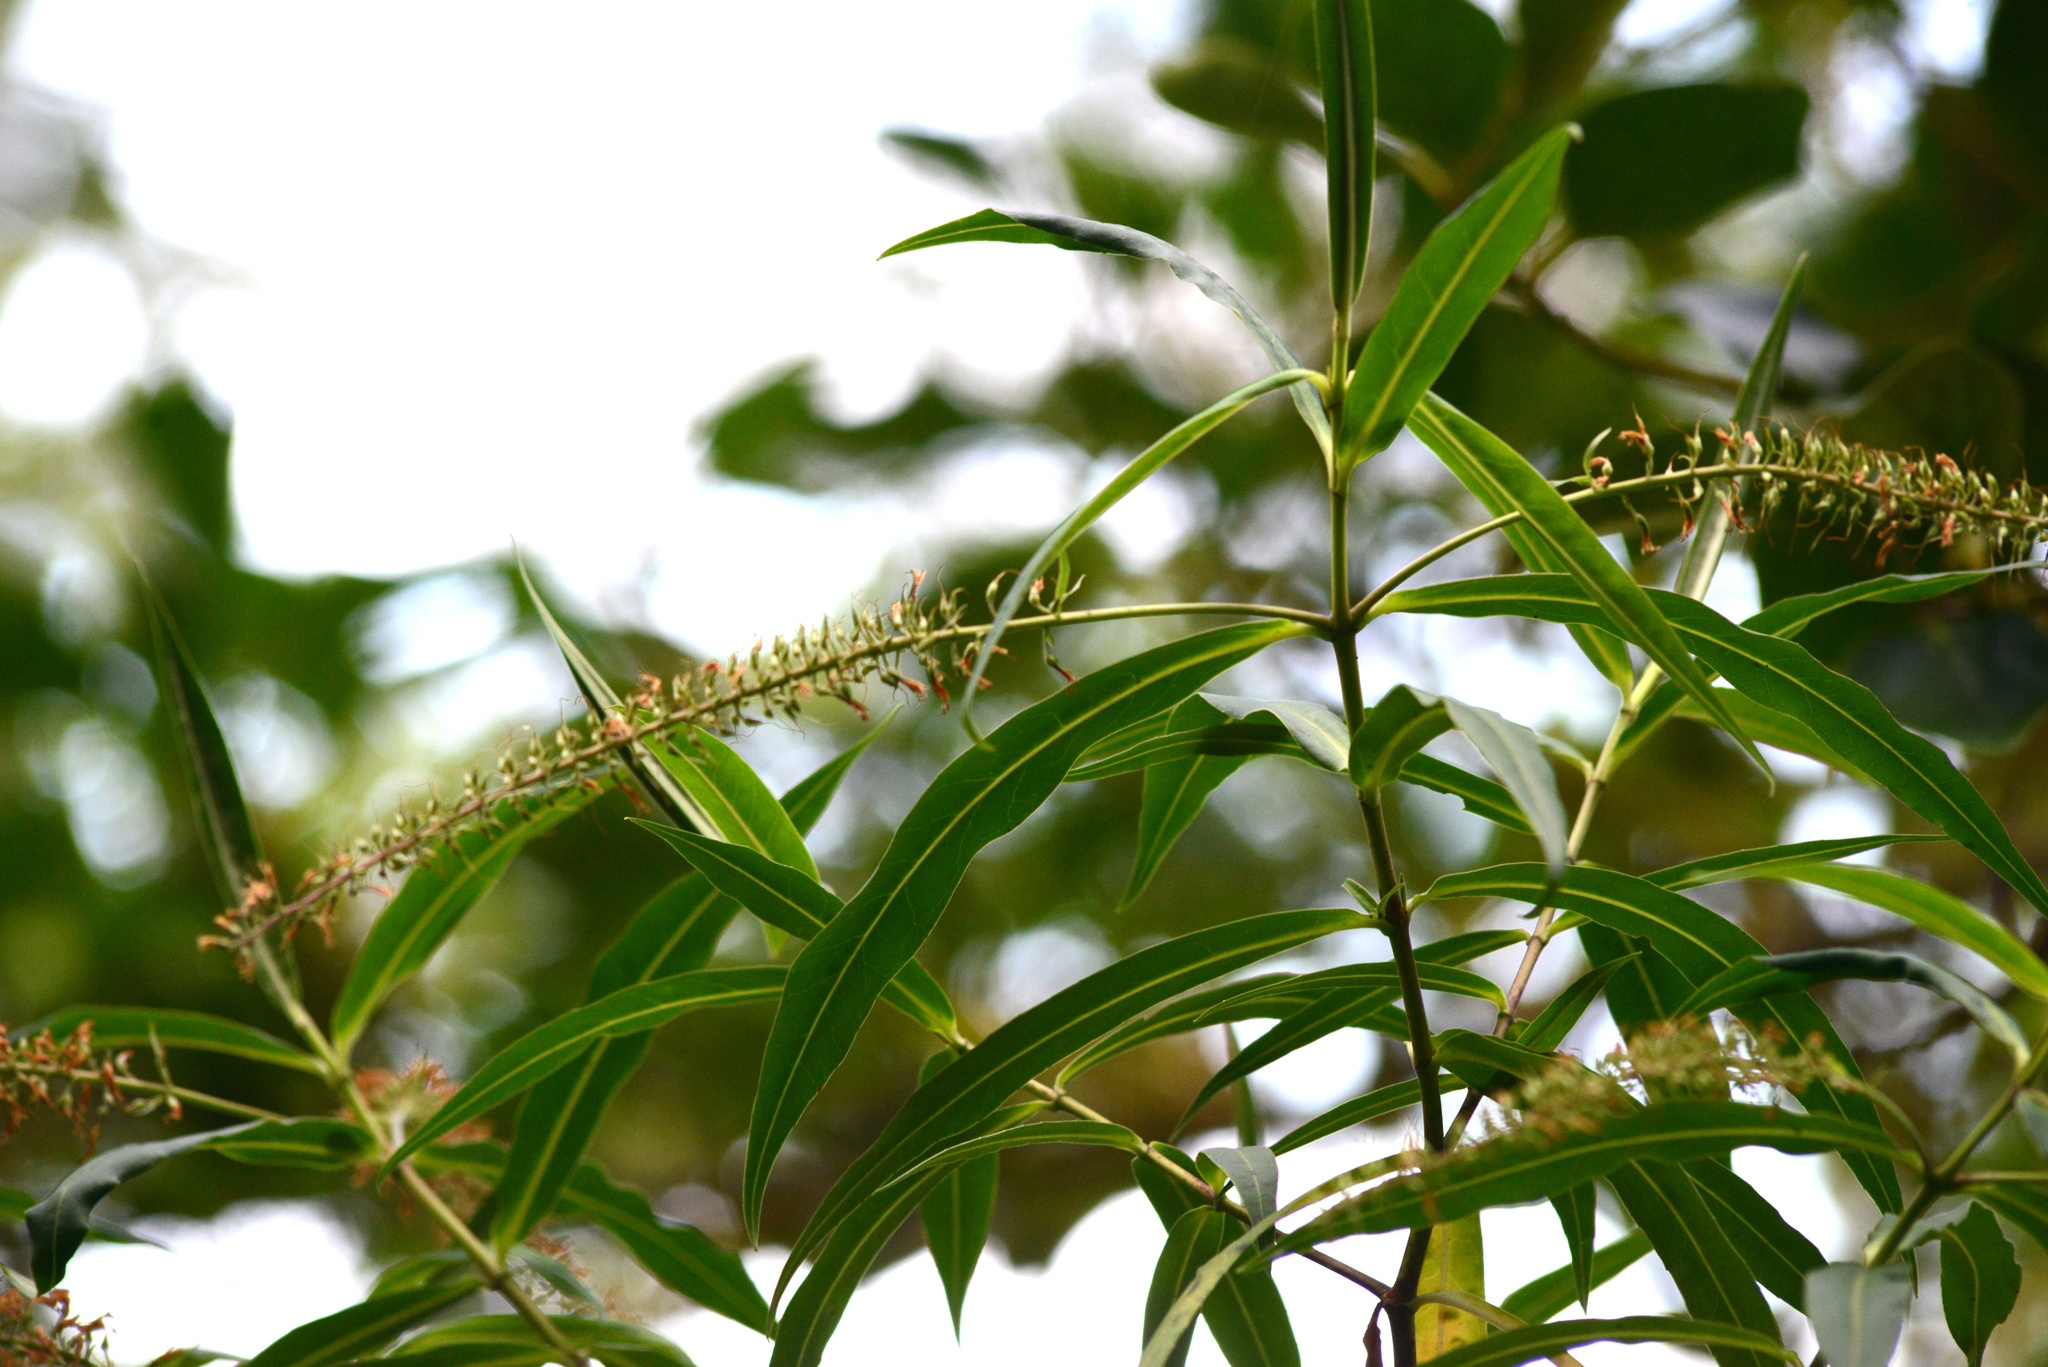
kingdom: Plantae
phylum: Tracheophyta
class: Magnoliopsida
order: Lamiales
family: Plantaginaceae
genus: Veronica
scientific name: Veronica salicifolia
